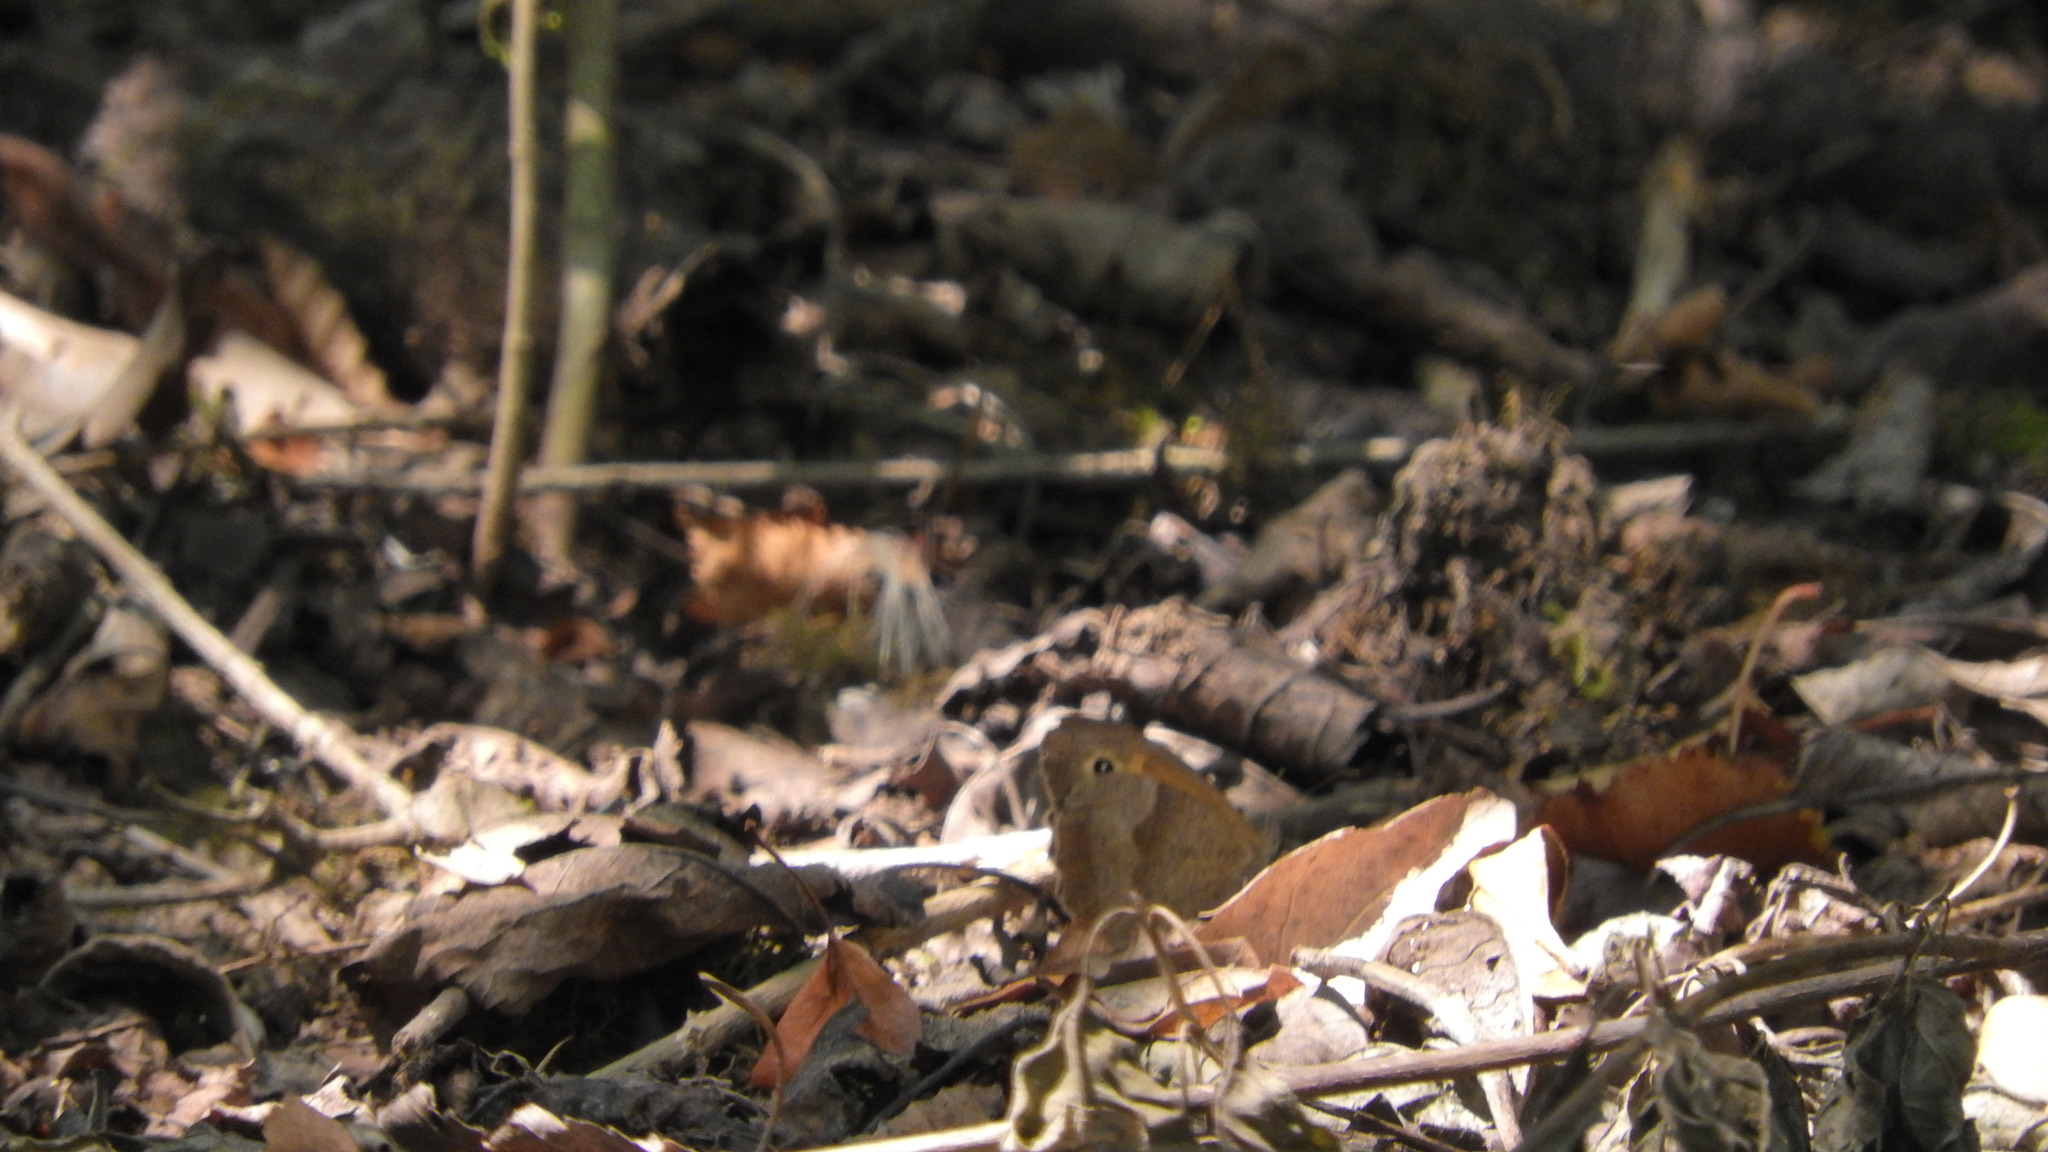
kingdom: Animalia
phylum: Arthropoda
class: Insecta
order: Lepidoptera
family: Nymphalidae
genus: Maniola
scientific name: Maniola jurtina
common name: Meadow brown
